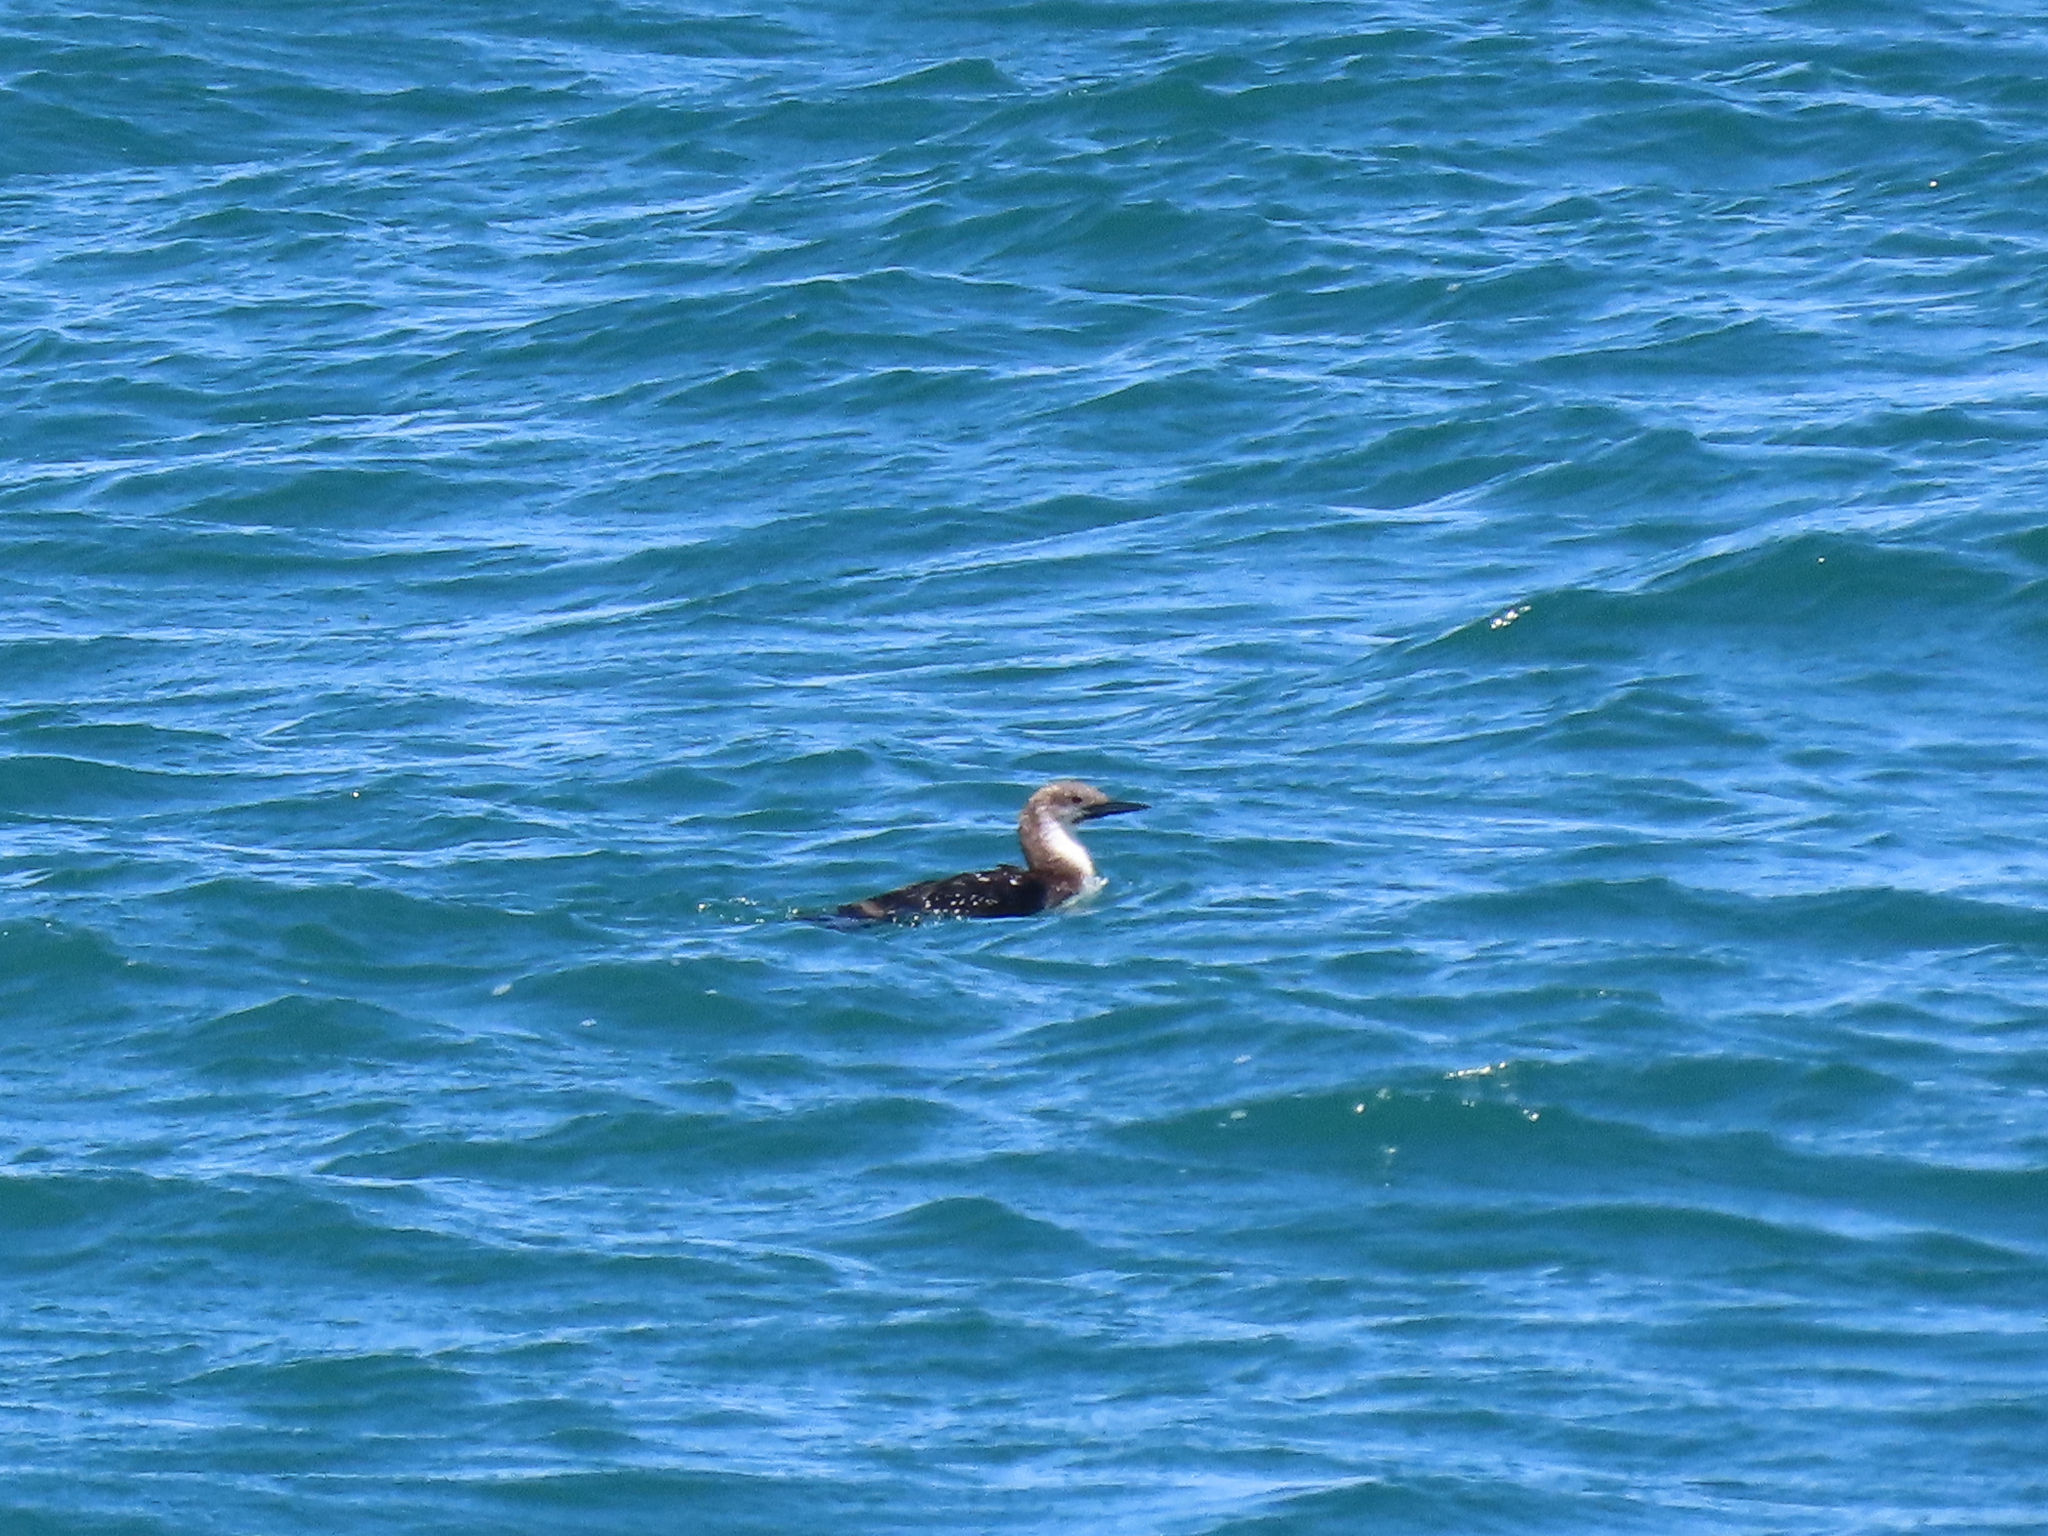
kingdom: Animalia
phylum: Chordata
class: Aves
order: Gaviiformes
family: Gaviidae
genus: Gavia
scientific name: Gavia pacifica
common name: Pacific loon
